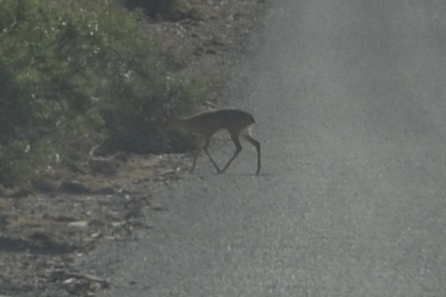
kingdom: Animalia
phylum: Chordata
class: Mammalia
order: Artiodactyla
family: Bovidae
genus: Raphicerus
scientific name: Raphicerus campestris
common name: Steenbok
